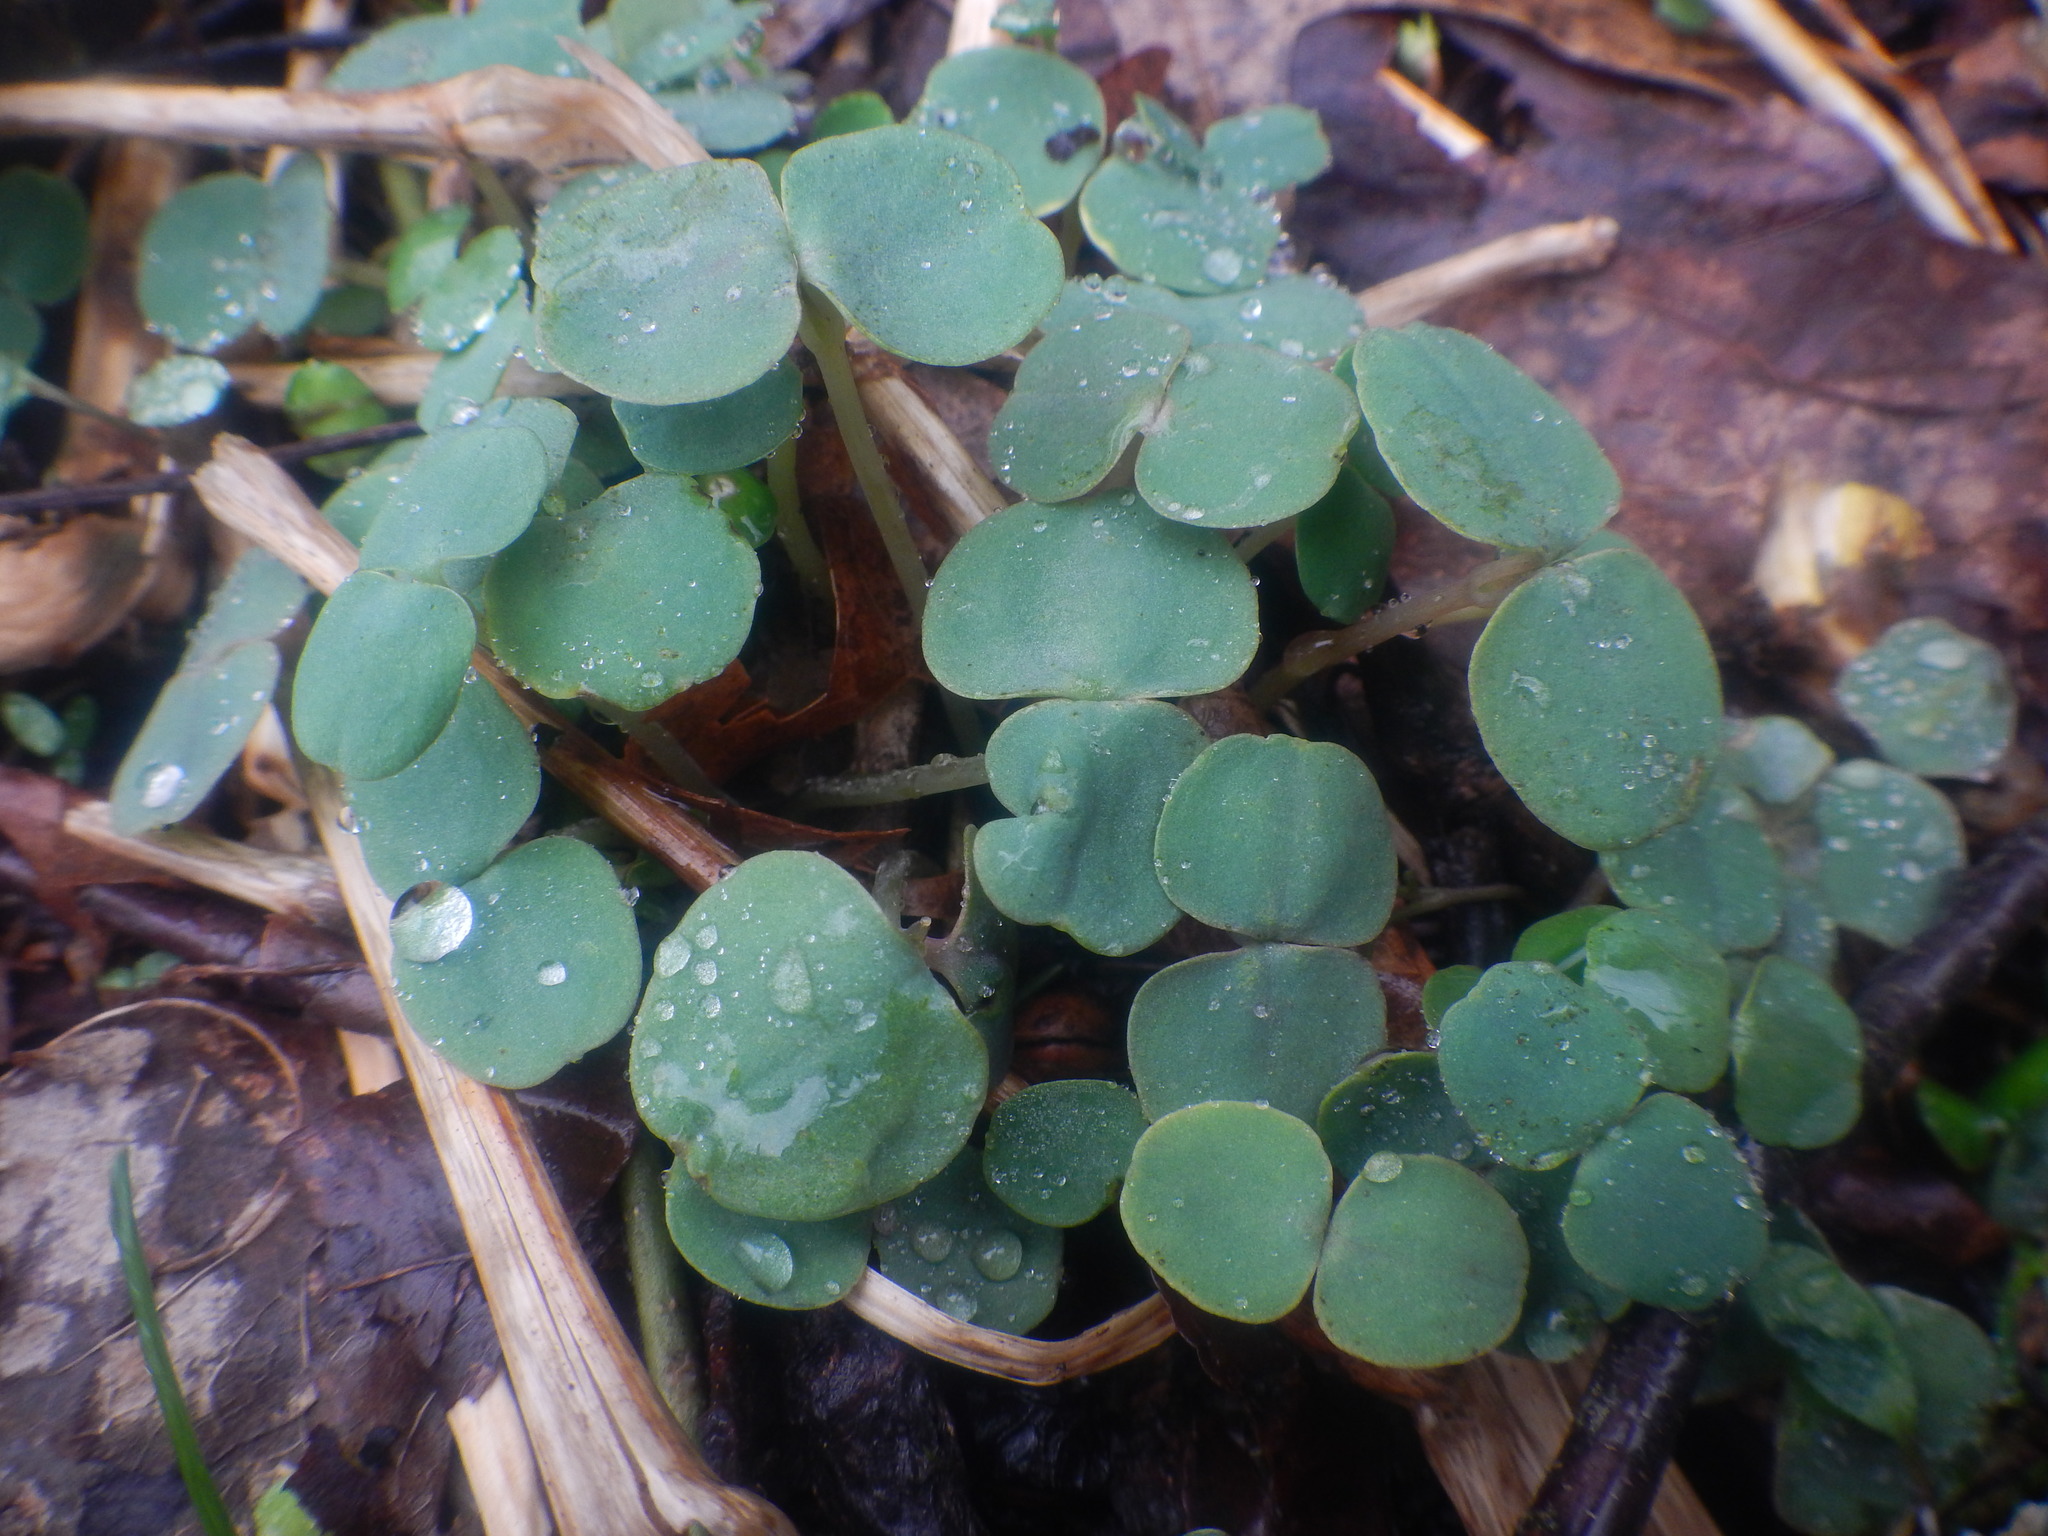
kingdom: Plantae
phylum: Tracheophyta
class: Magnoliopsida
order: Ericales
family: Balsaminaceae
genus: Impatiens
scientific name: Impatiens
